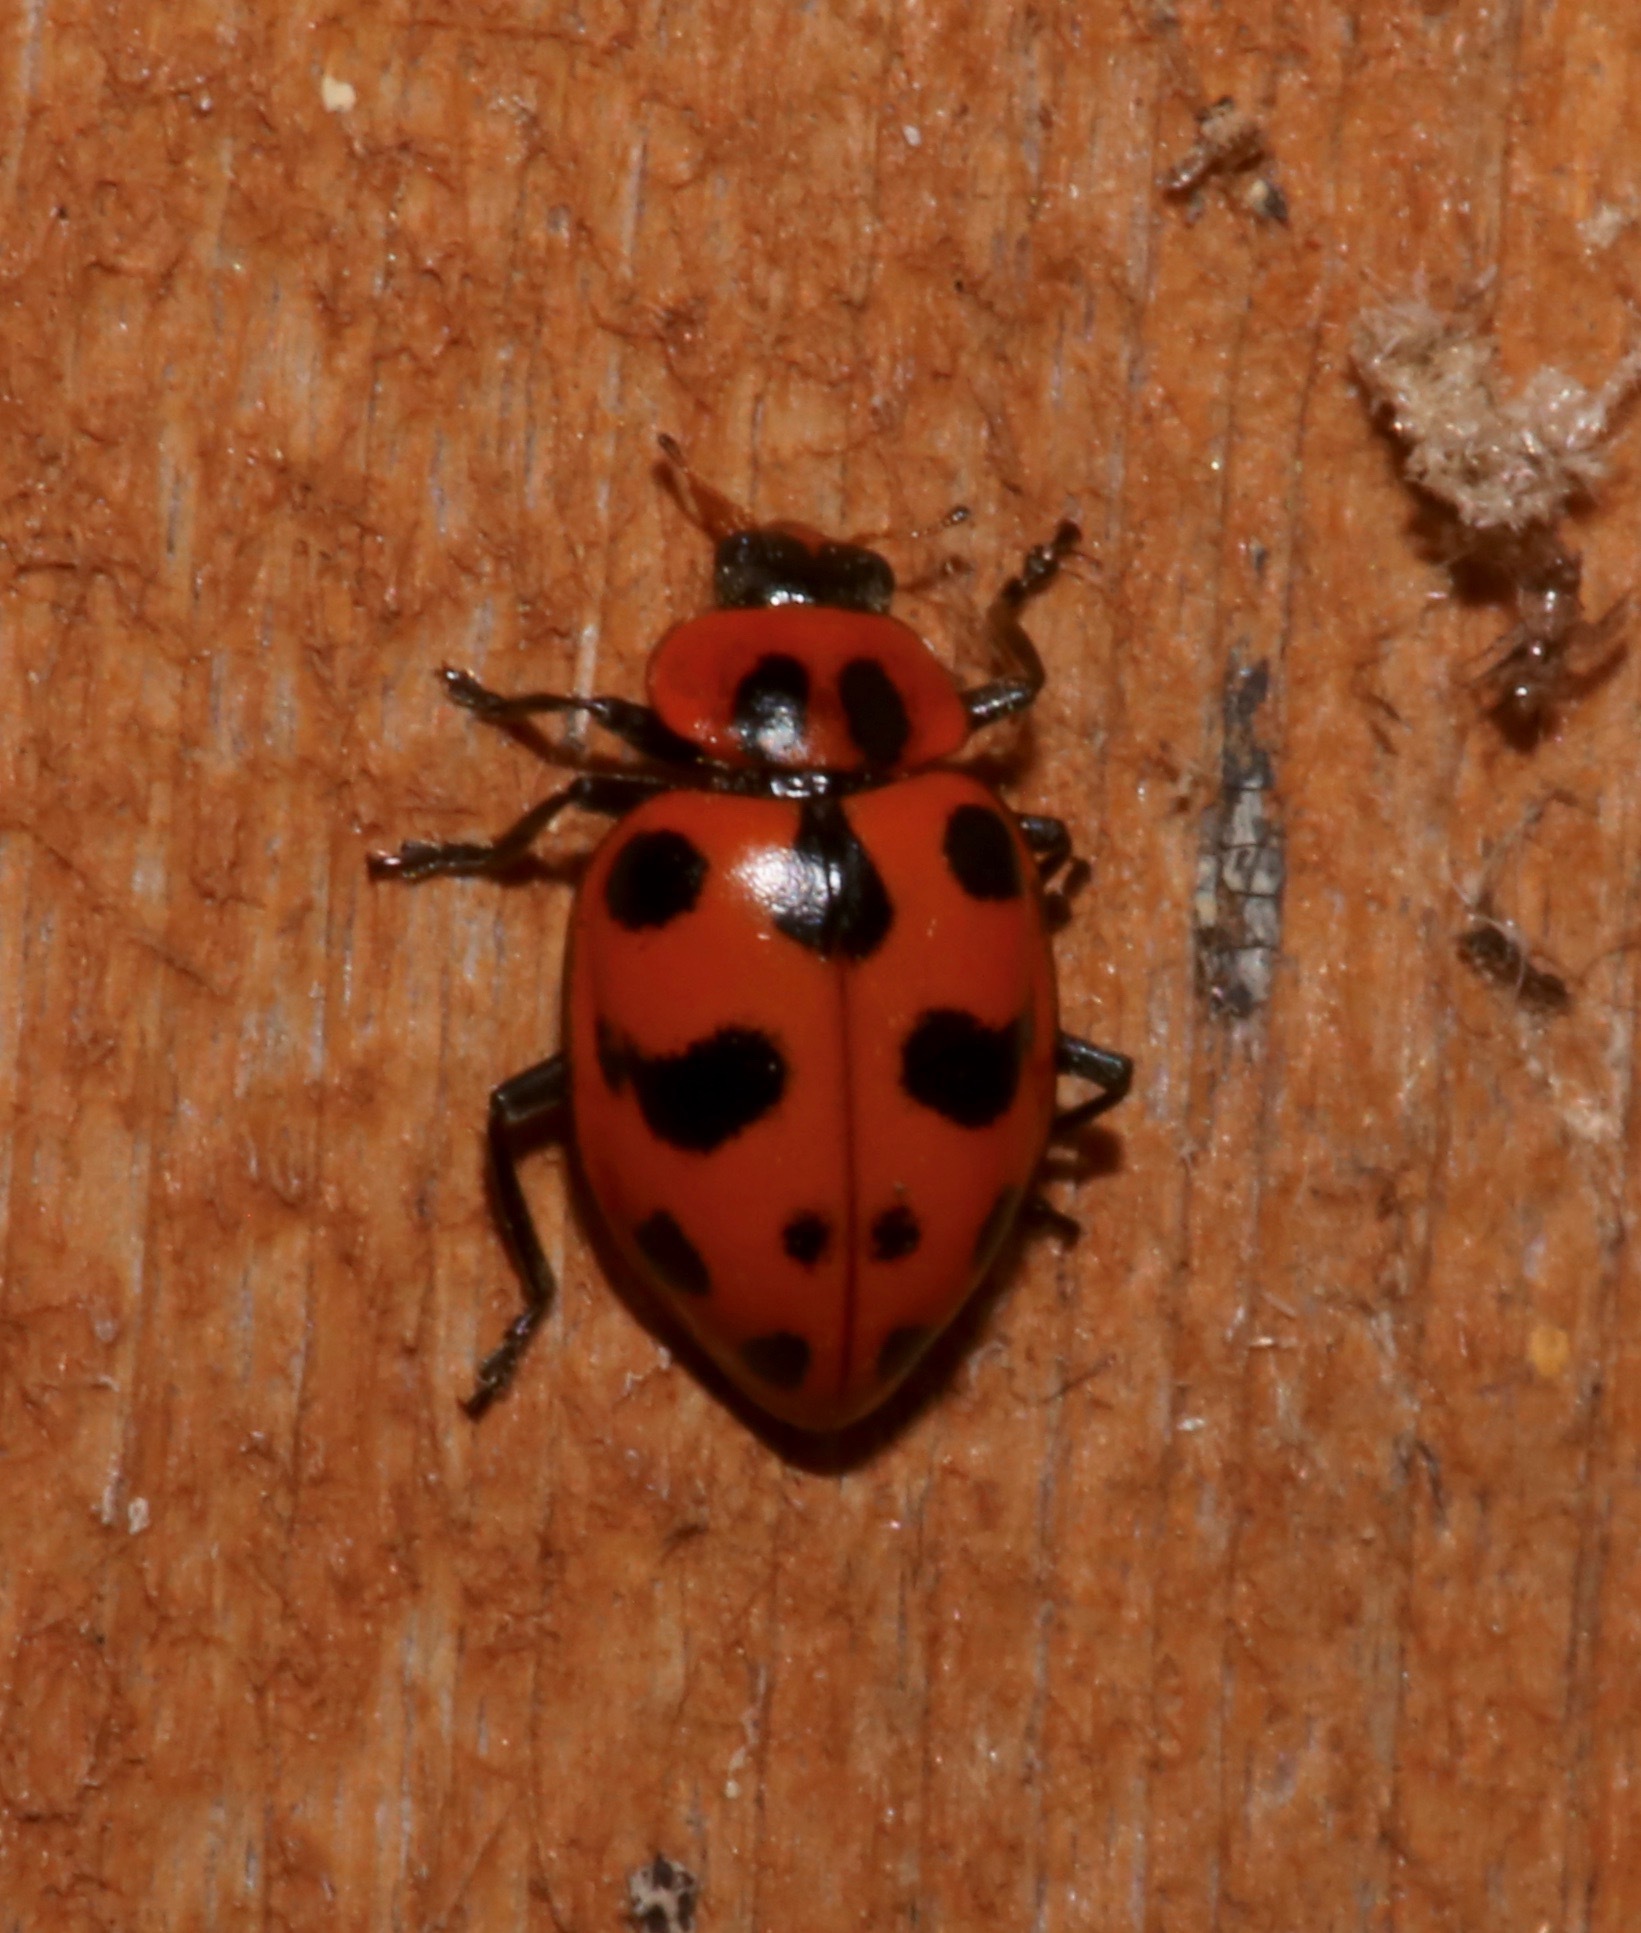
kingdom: Animalia
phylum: Arthropoda
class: Insecta
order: Coleoptera
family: Coccinellidae
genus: Coleomegilla
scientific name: Coleomegilla maculata
